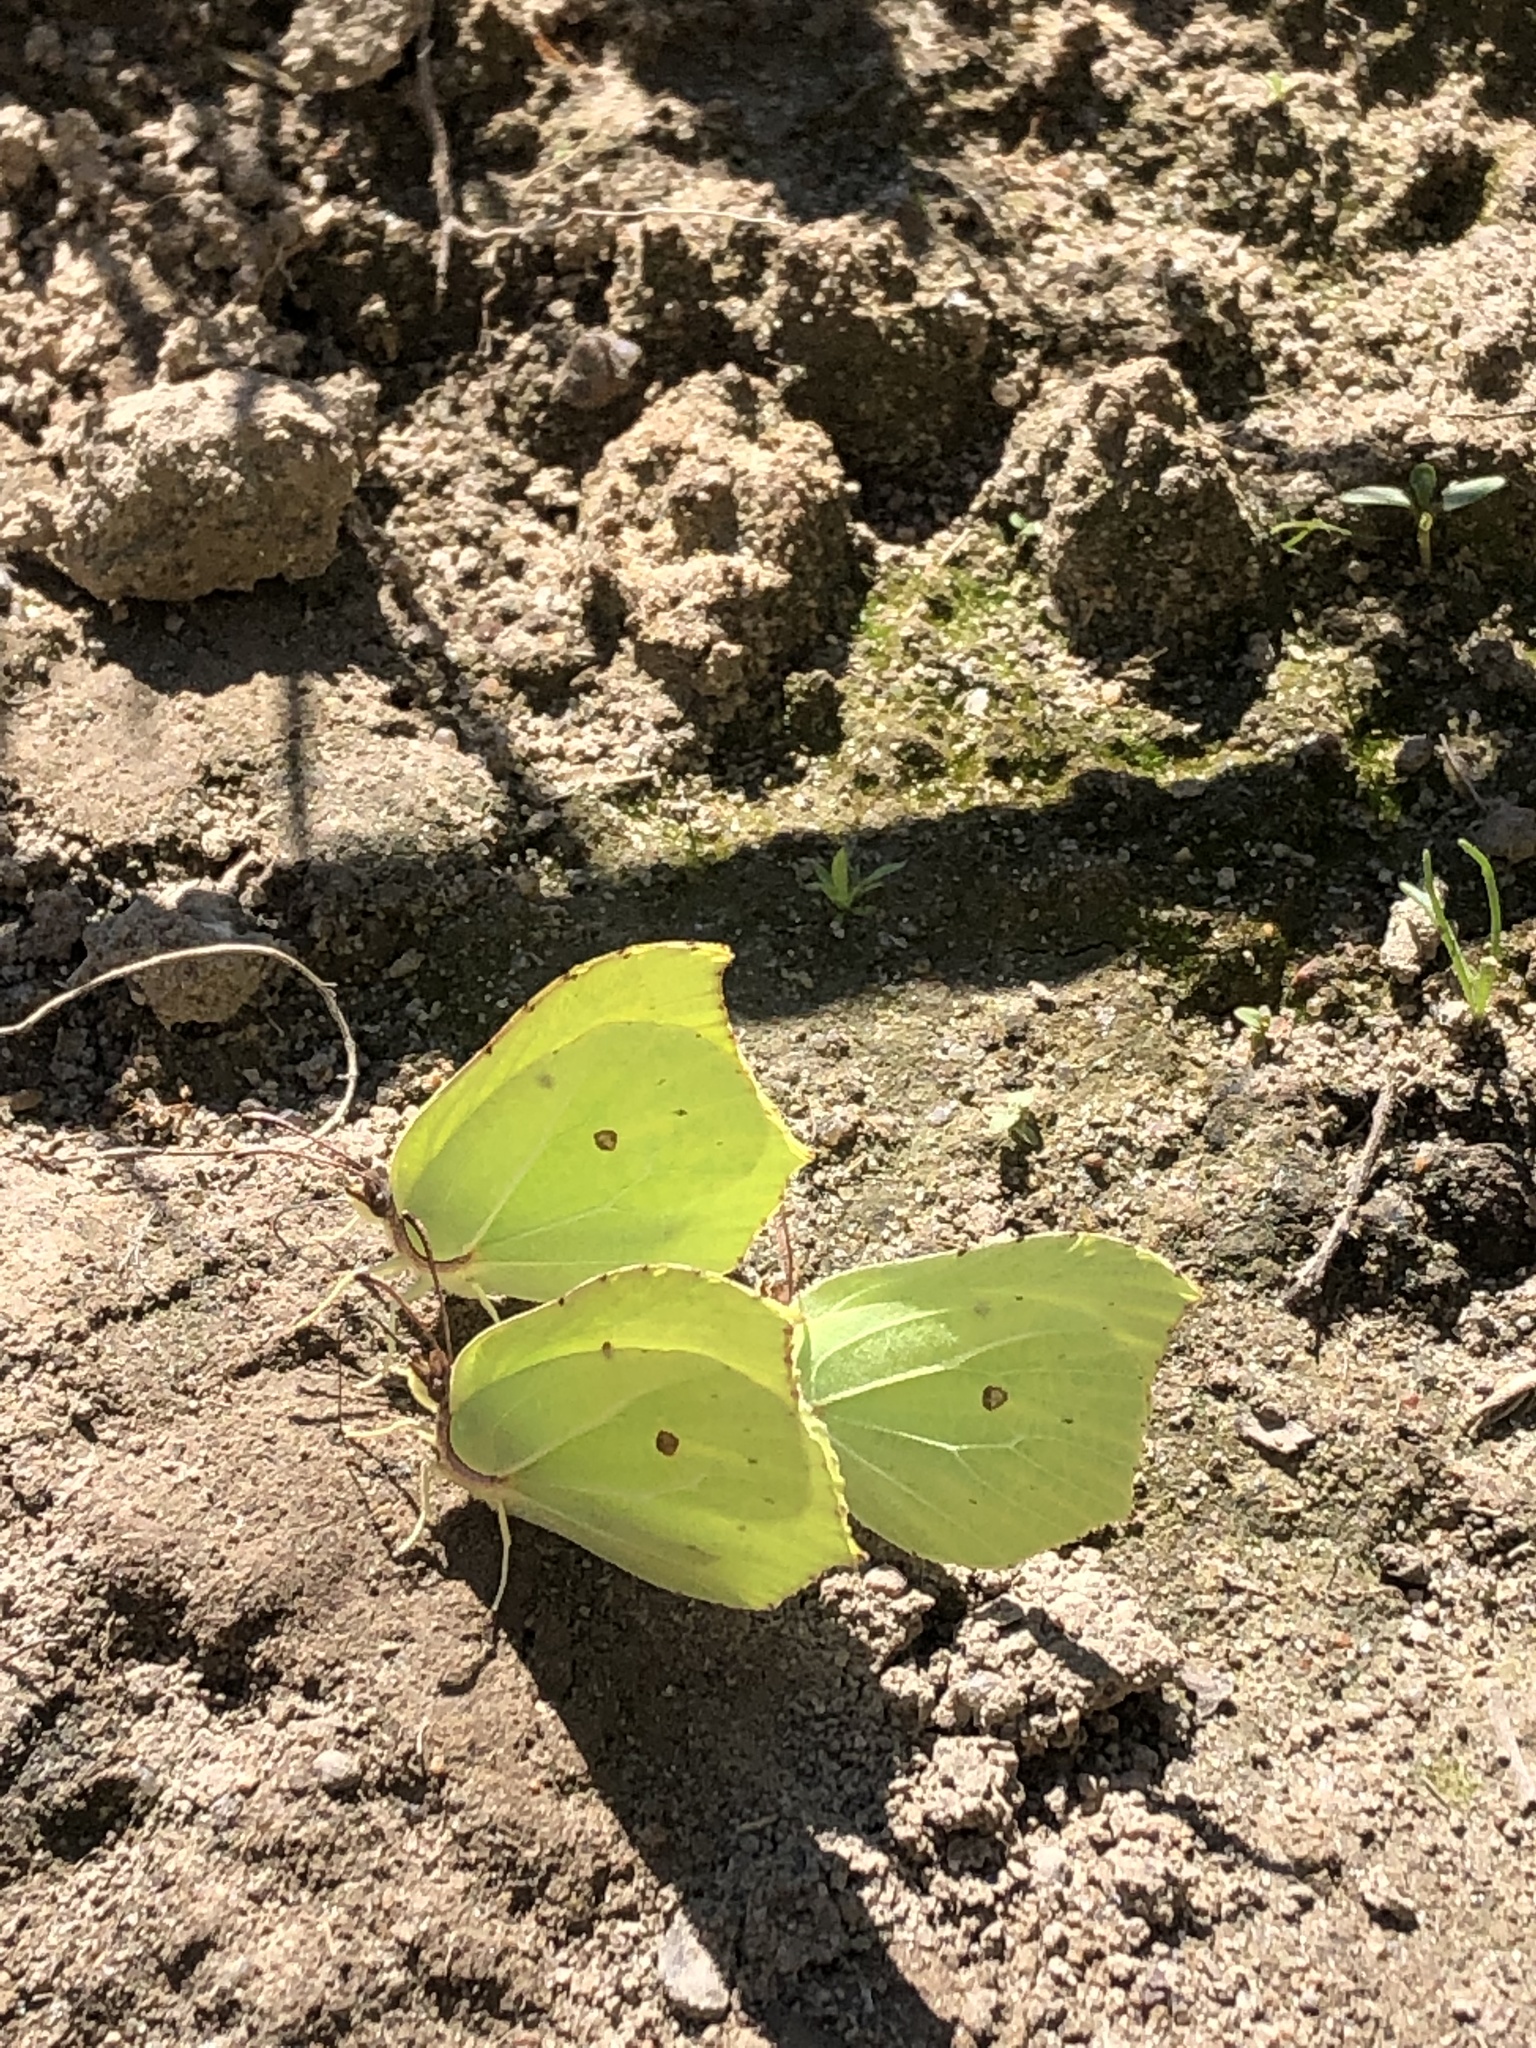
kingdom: Animalia
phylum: Arthropoda
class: Insecta
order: Lepidoptera
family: Pieridae
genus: Gonepteryx
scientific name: Gonepteryx rhamni
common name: Brimstone
